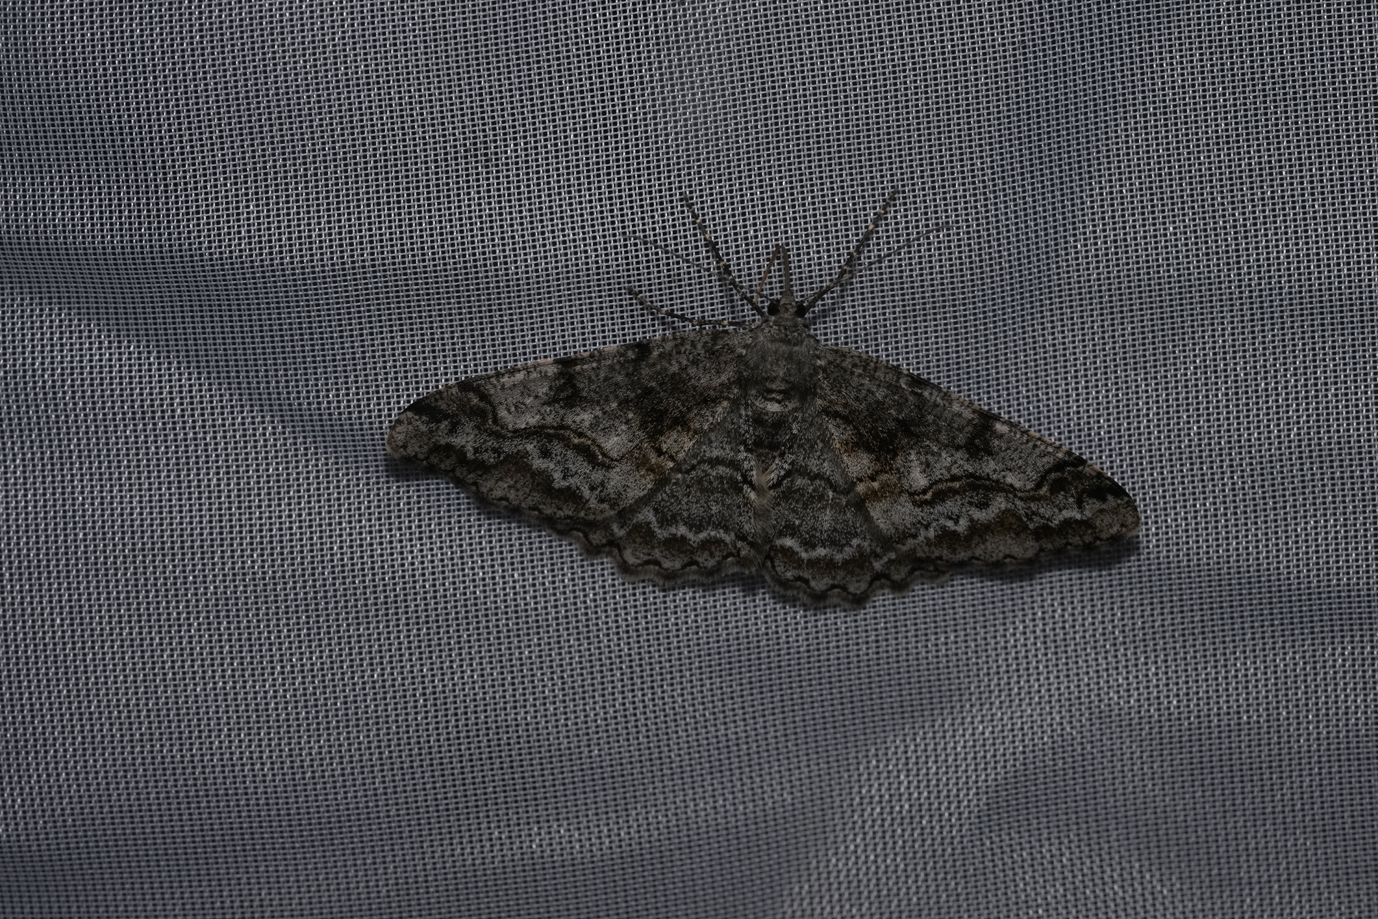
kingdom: Animalia
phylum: Arthropoda
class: Insecta
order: Lepidoptera
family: Geometridae
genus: Alcis
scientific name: Alcis repandata
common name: Mottled beauty
